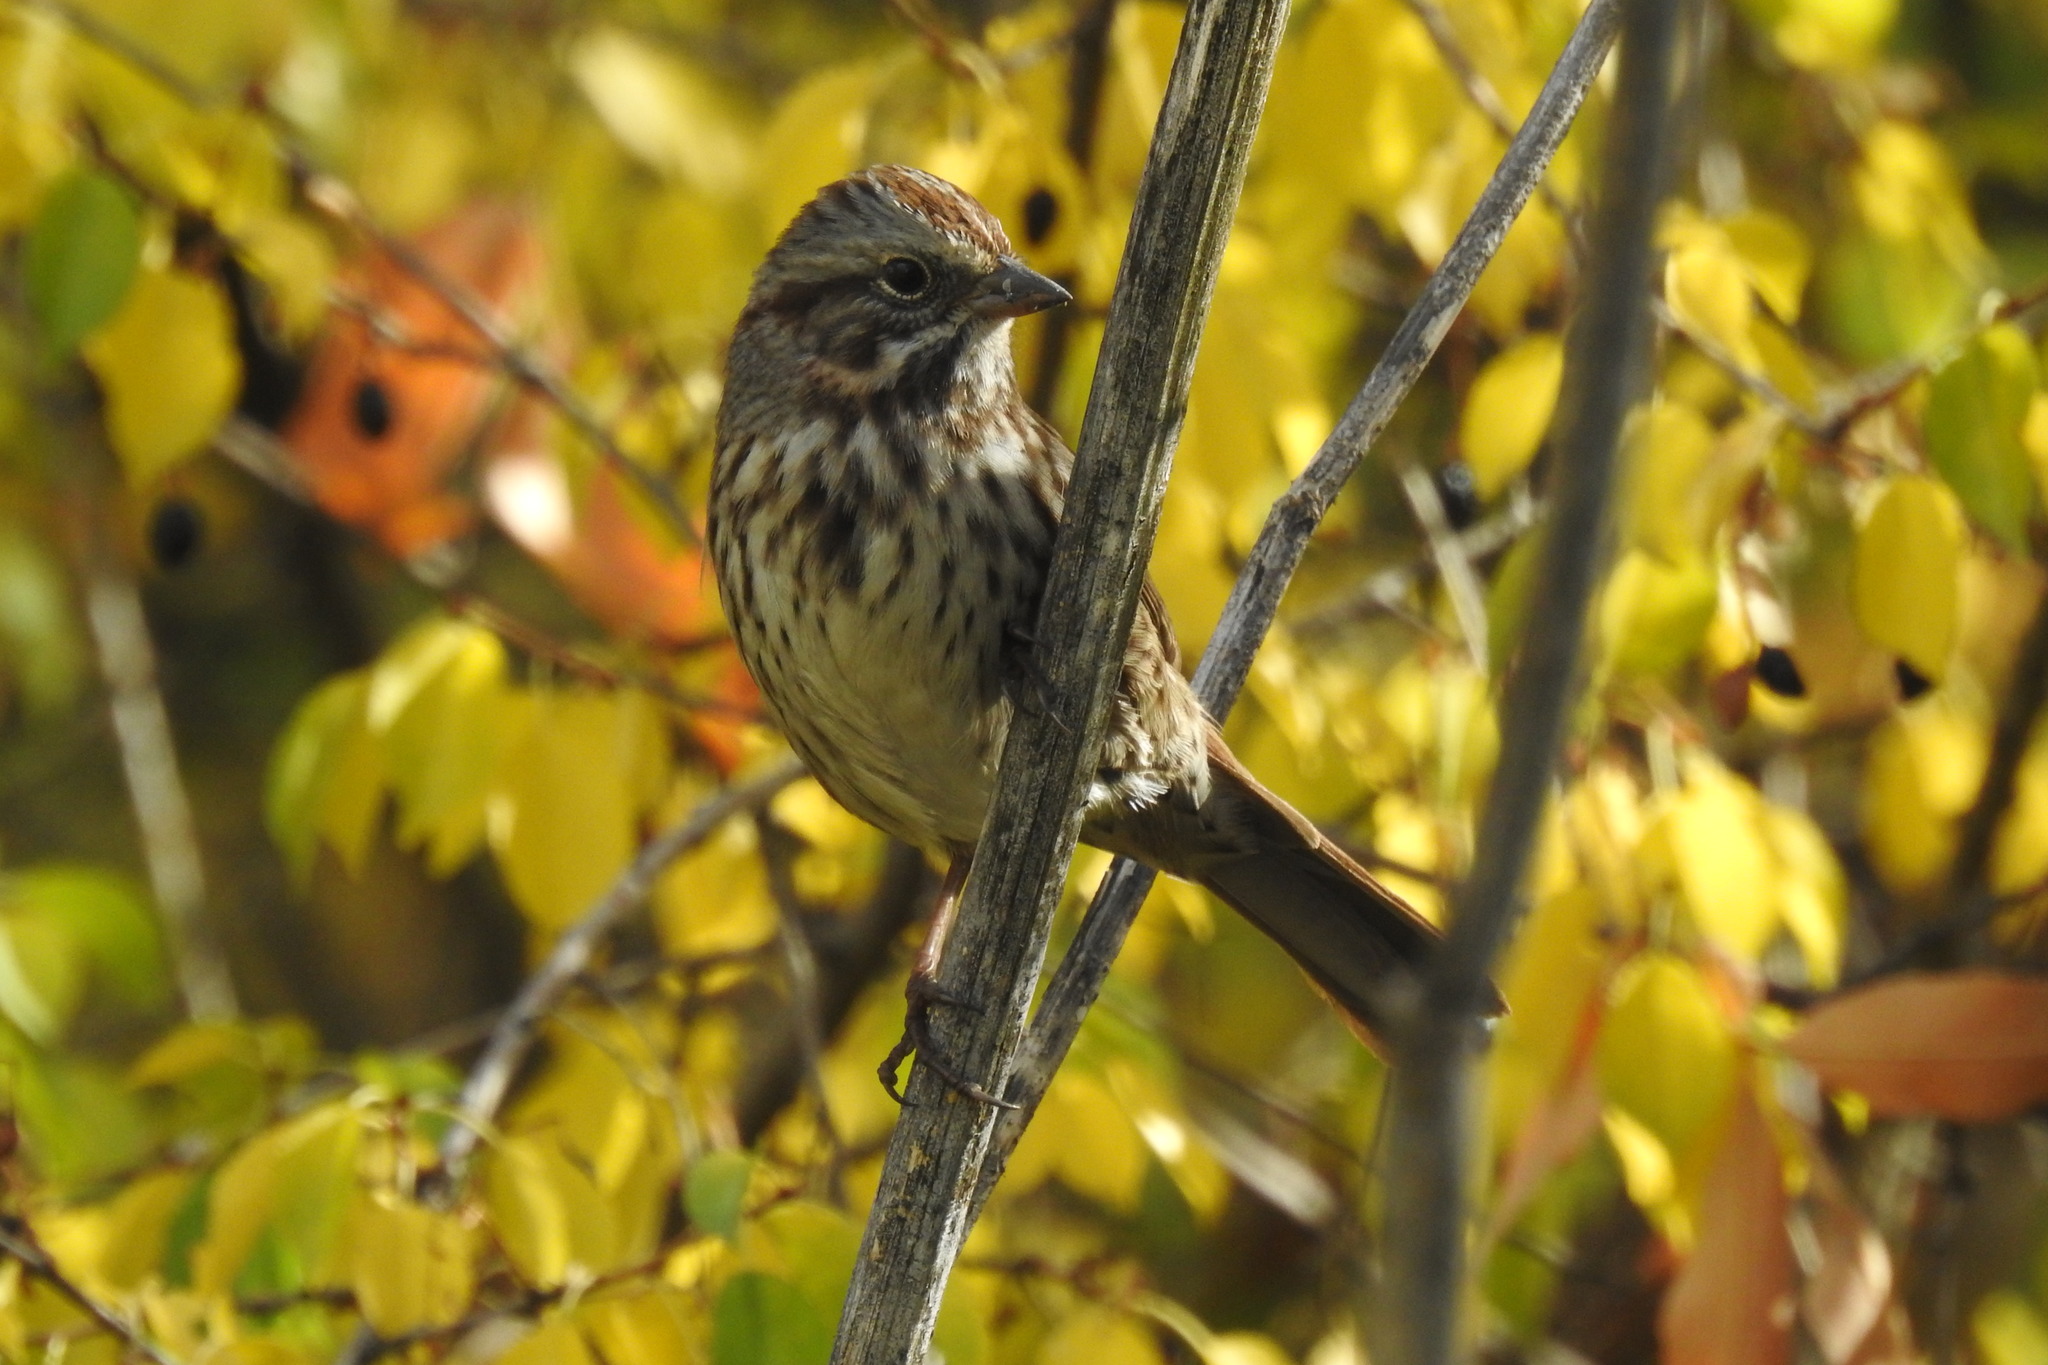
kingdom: Animalia
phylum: Chordata
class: Aves
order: Passeriformes
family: Passerellidae
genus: Melospiza
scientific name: Melospiza melodia
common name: Song sparrow
